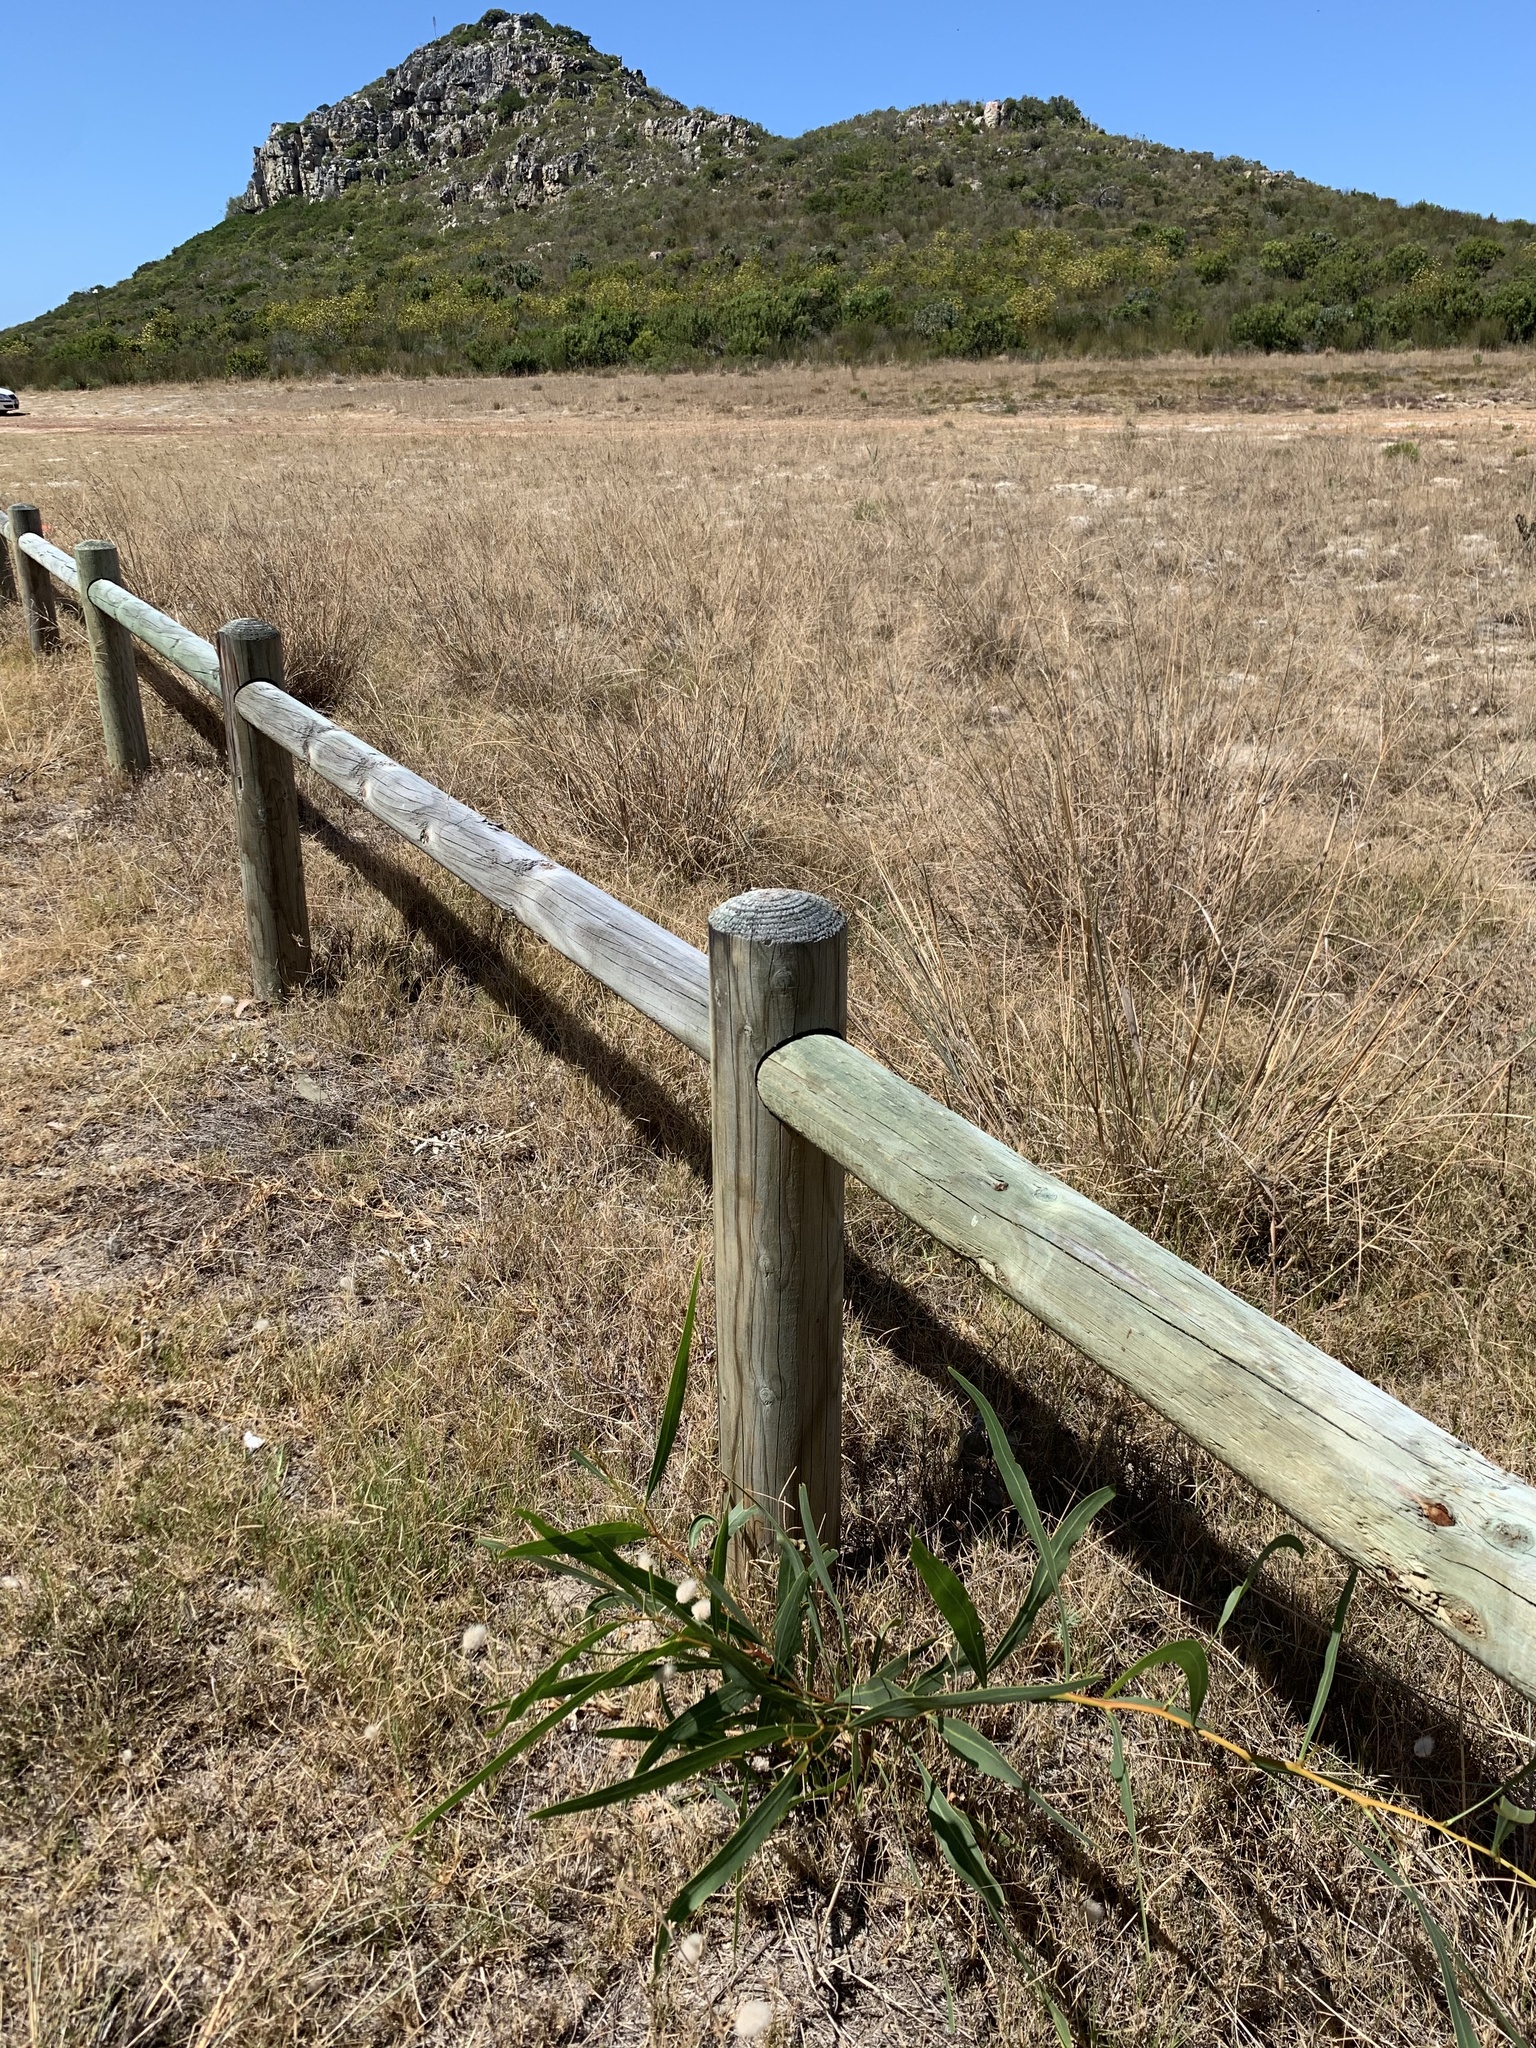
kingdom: Plantae
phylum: Tracheophyta
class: Magnoliopsida
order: Fabales
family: Fabaceae
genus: Acacia
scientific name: Acacia saligna
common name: Orange wattle
